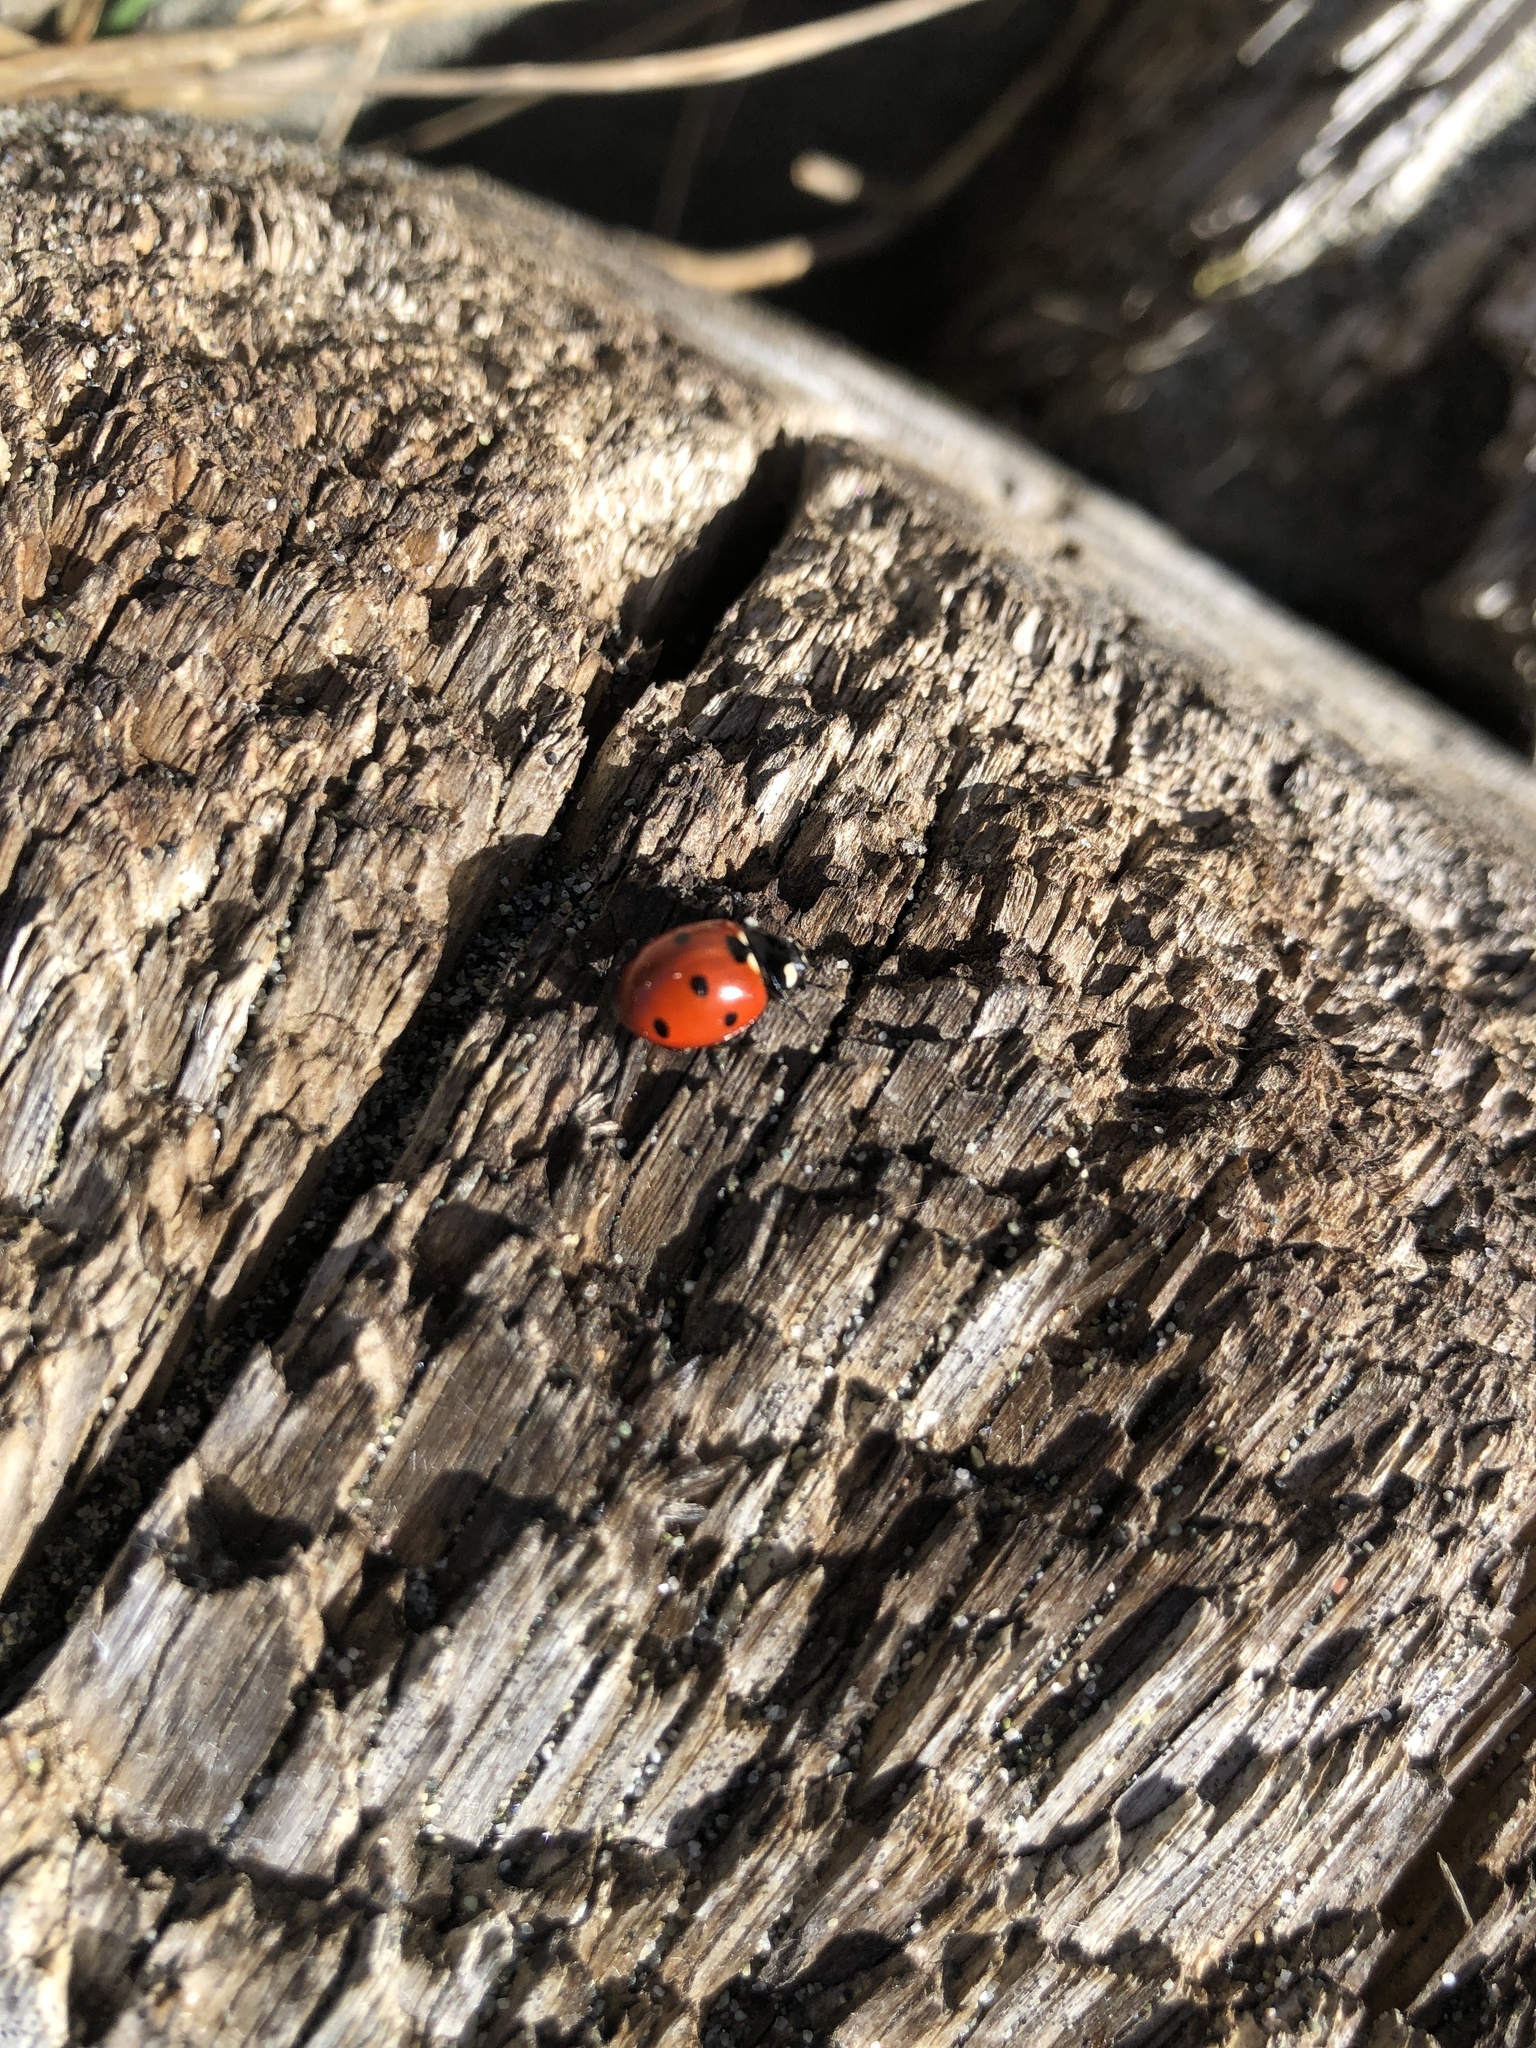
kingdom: Animalia
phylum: Arthropoda
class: Insecta
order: Coleoptera
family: Coccinellidae
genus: Coccinella
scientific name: Coccinella septempunctata
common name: Sevenspotted lady beetle
